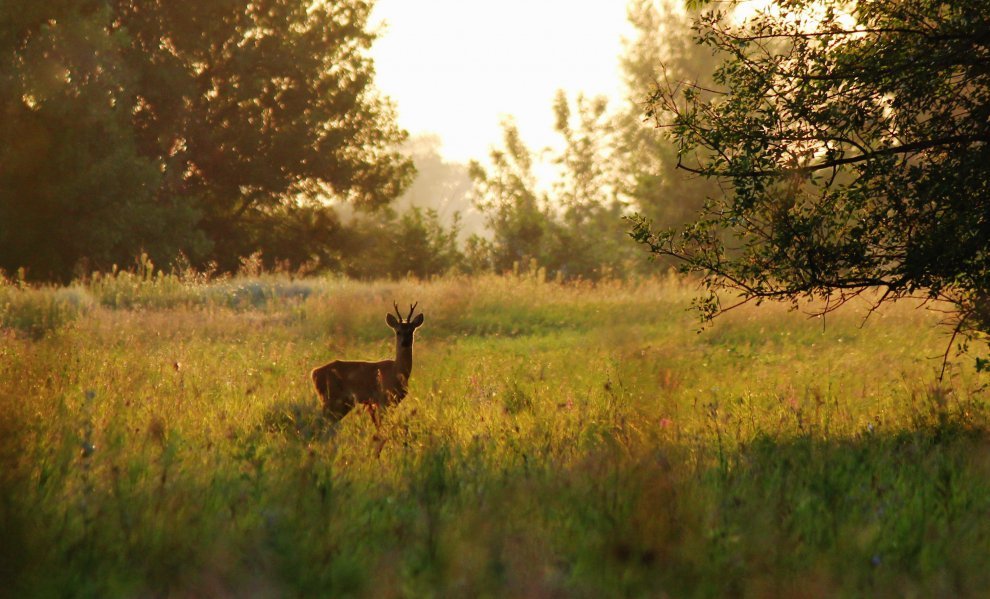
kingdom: Animalia
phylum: Chordata
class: Mammalia
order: Artiodactyla
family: Cervidae
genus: Capreolus
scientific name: Capreolus pygargus
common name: Siberian roe
